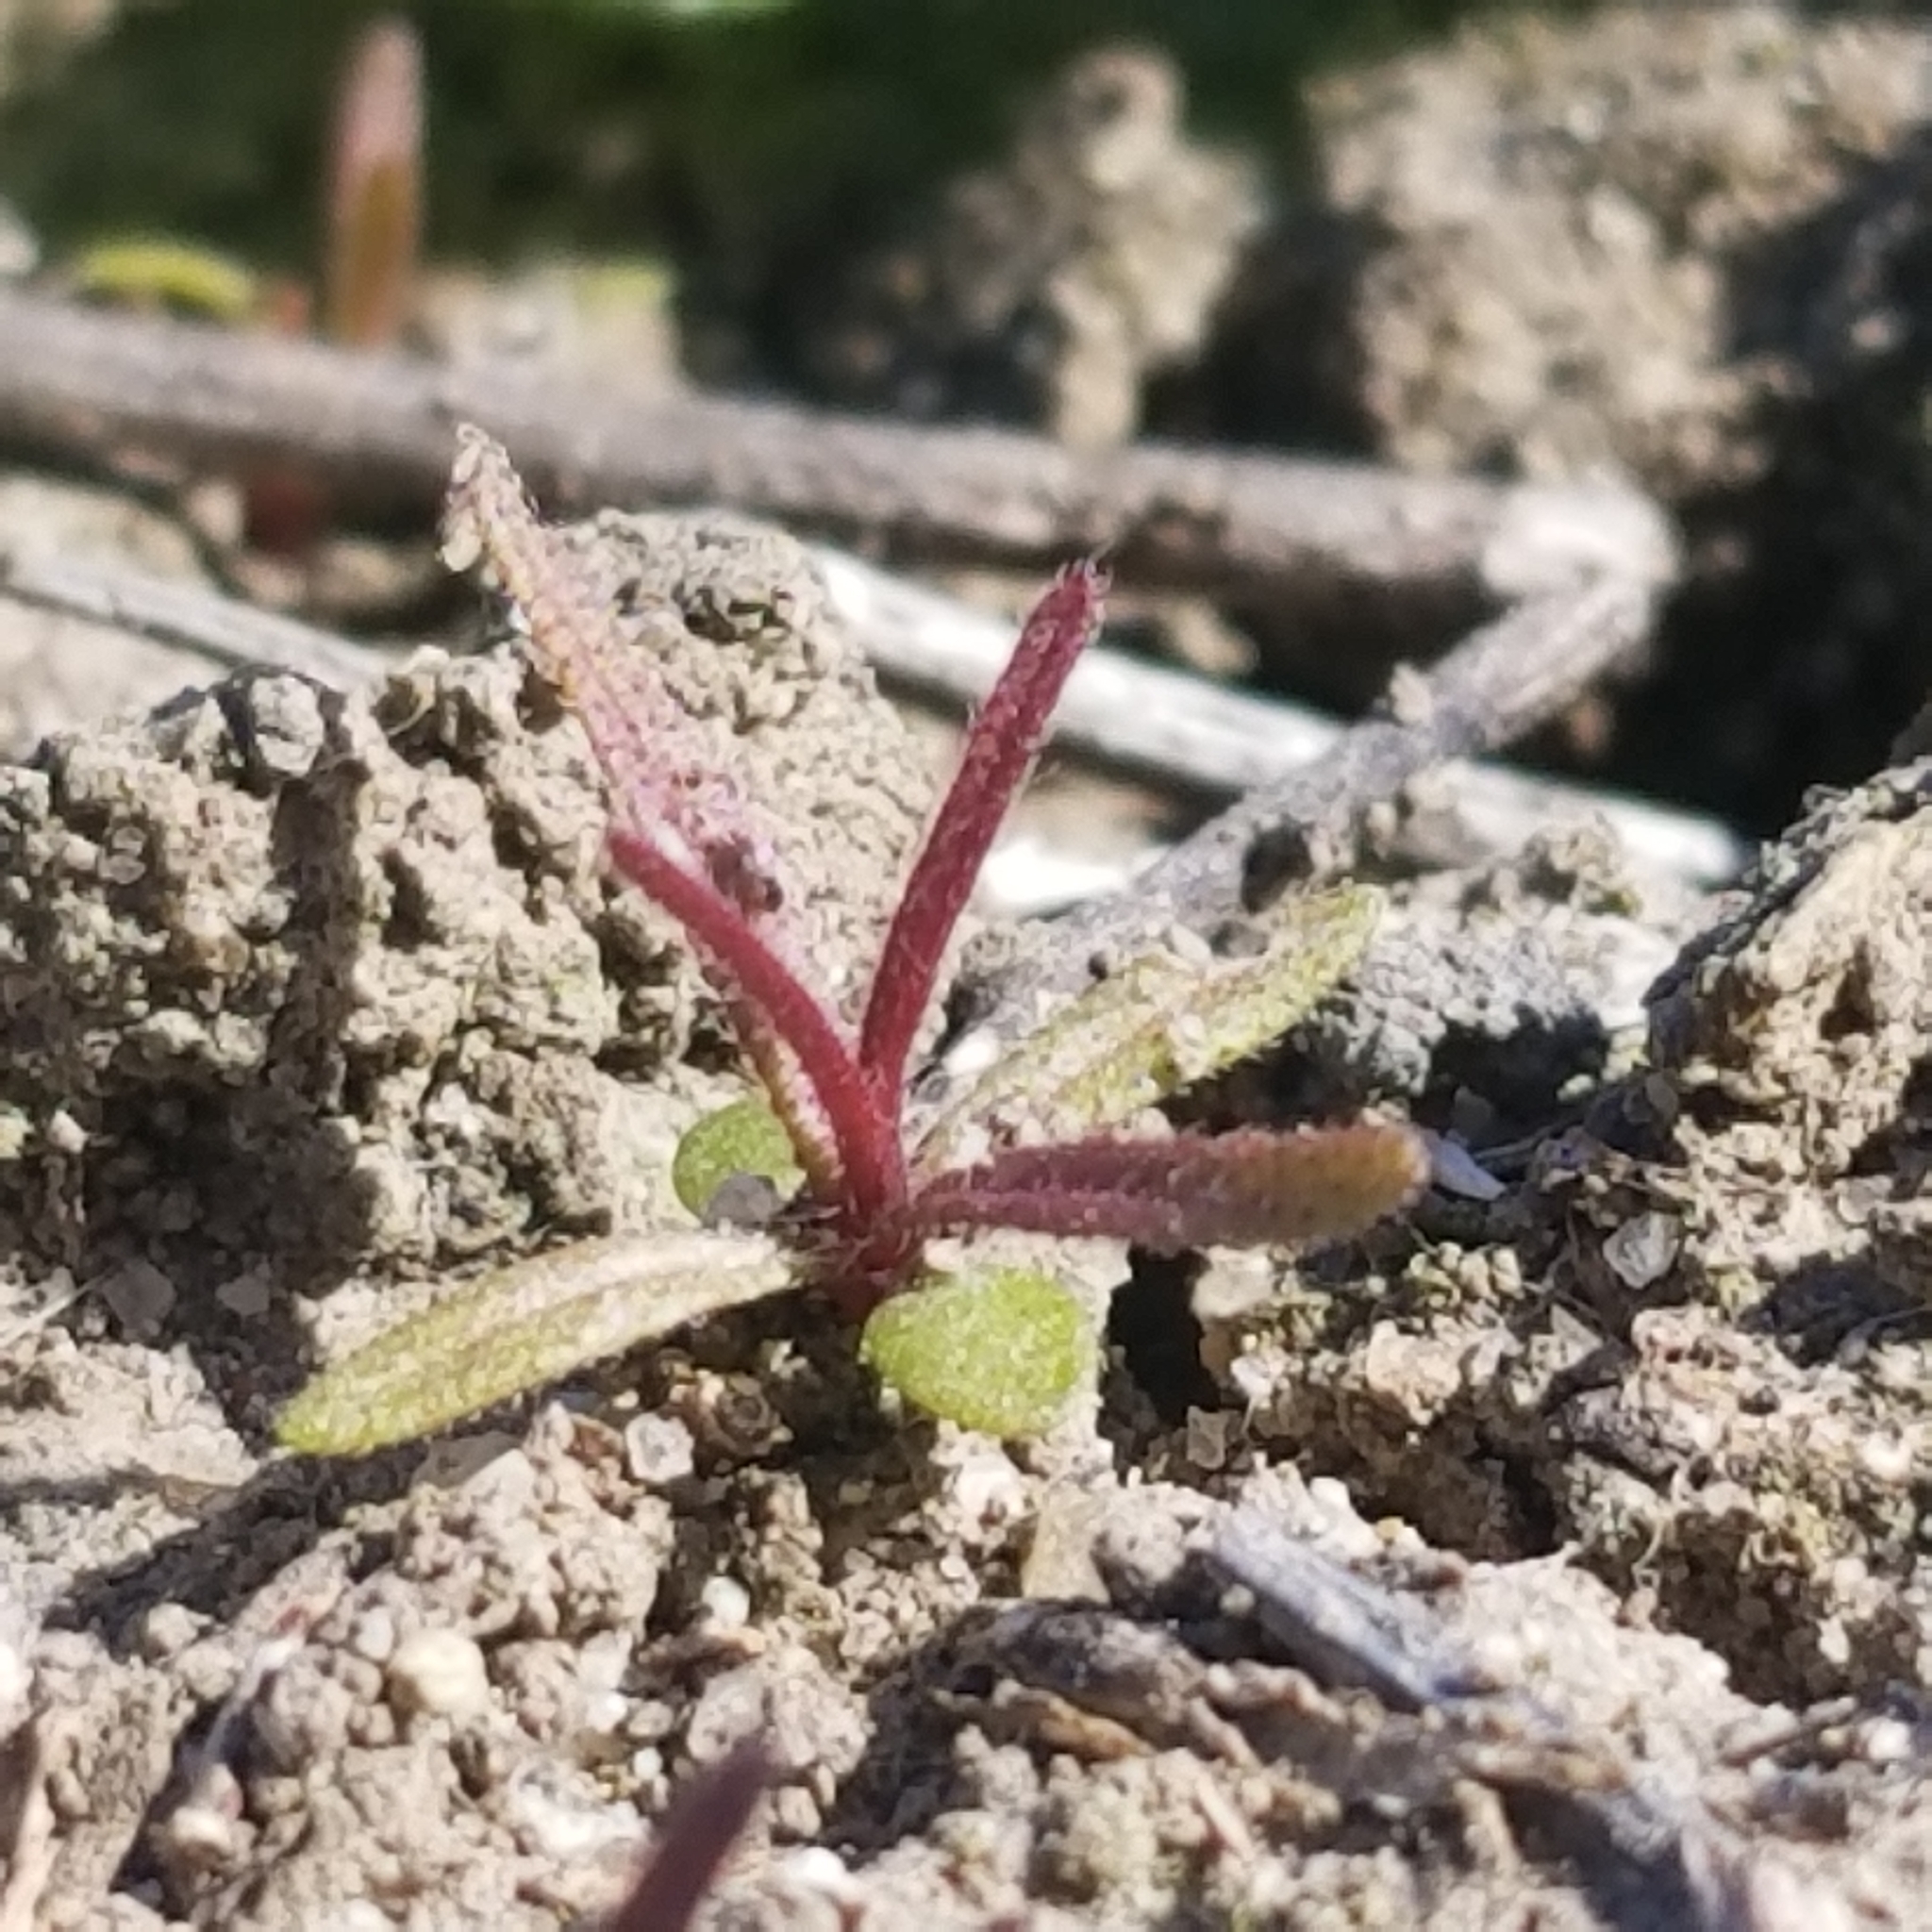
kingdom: Plantae
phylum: Tracheophyta
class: Magnoliopsida
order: Lamiales
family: Orobanchaceae
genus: Dicranostegia
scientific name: Dicranostegia orcuttiana
